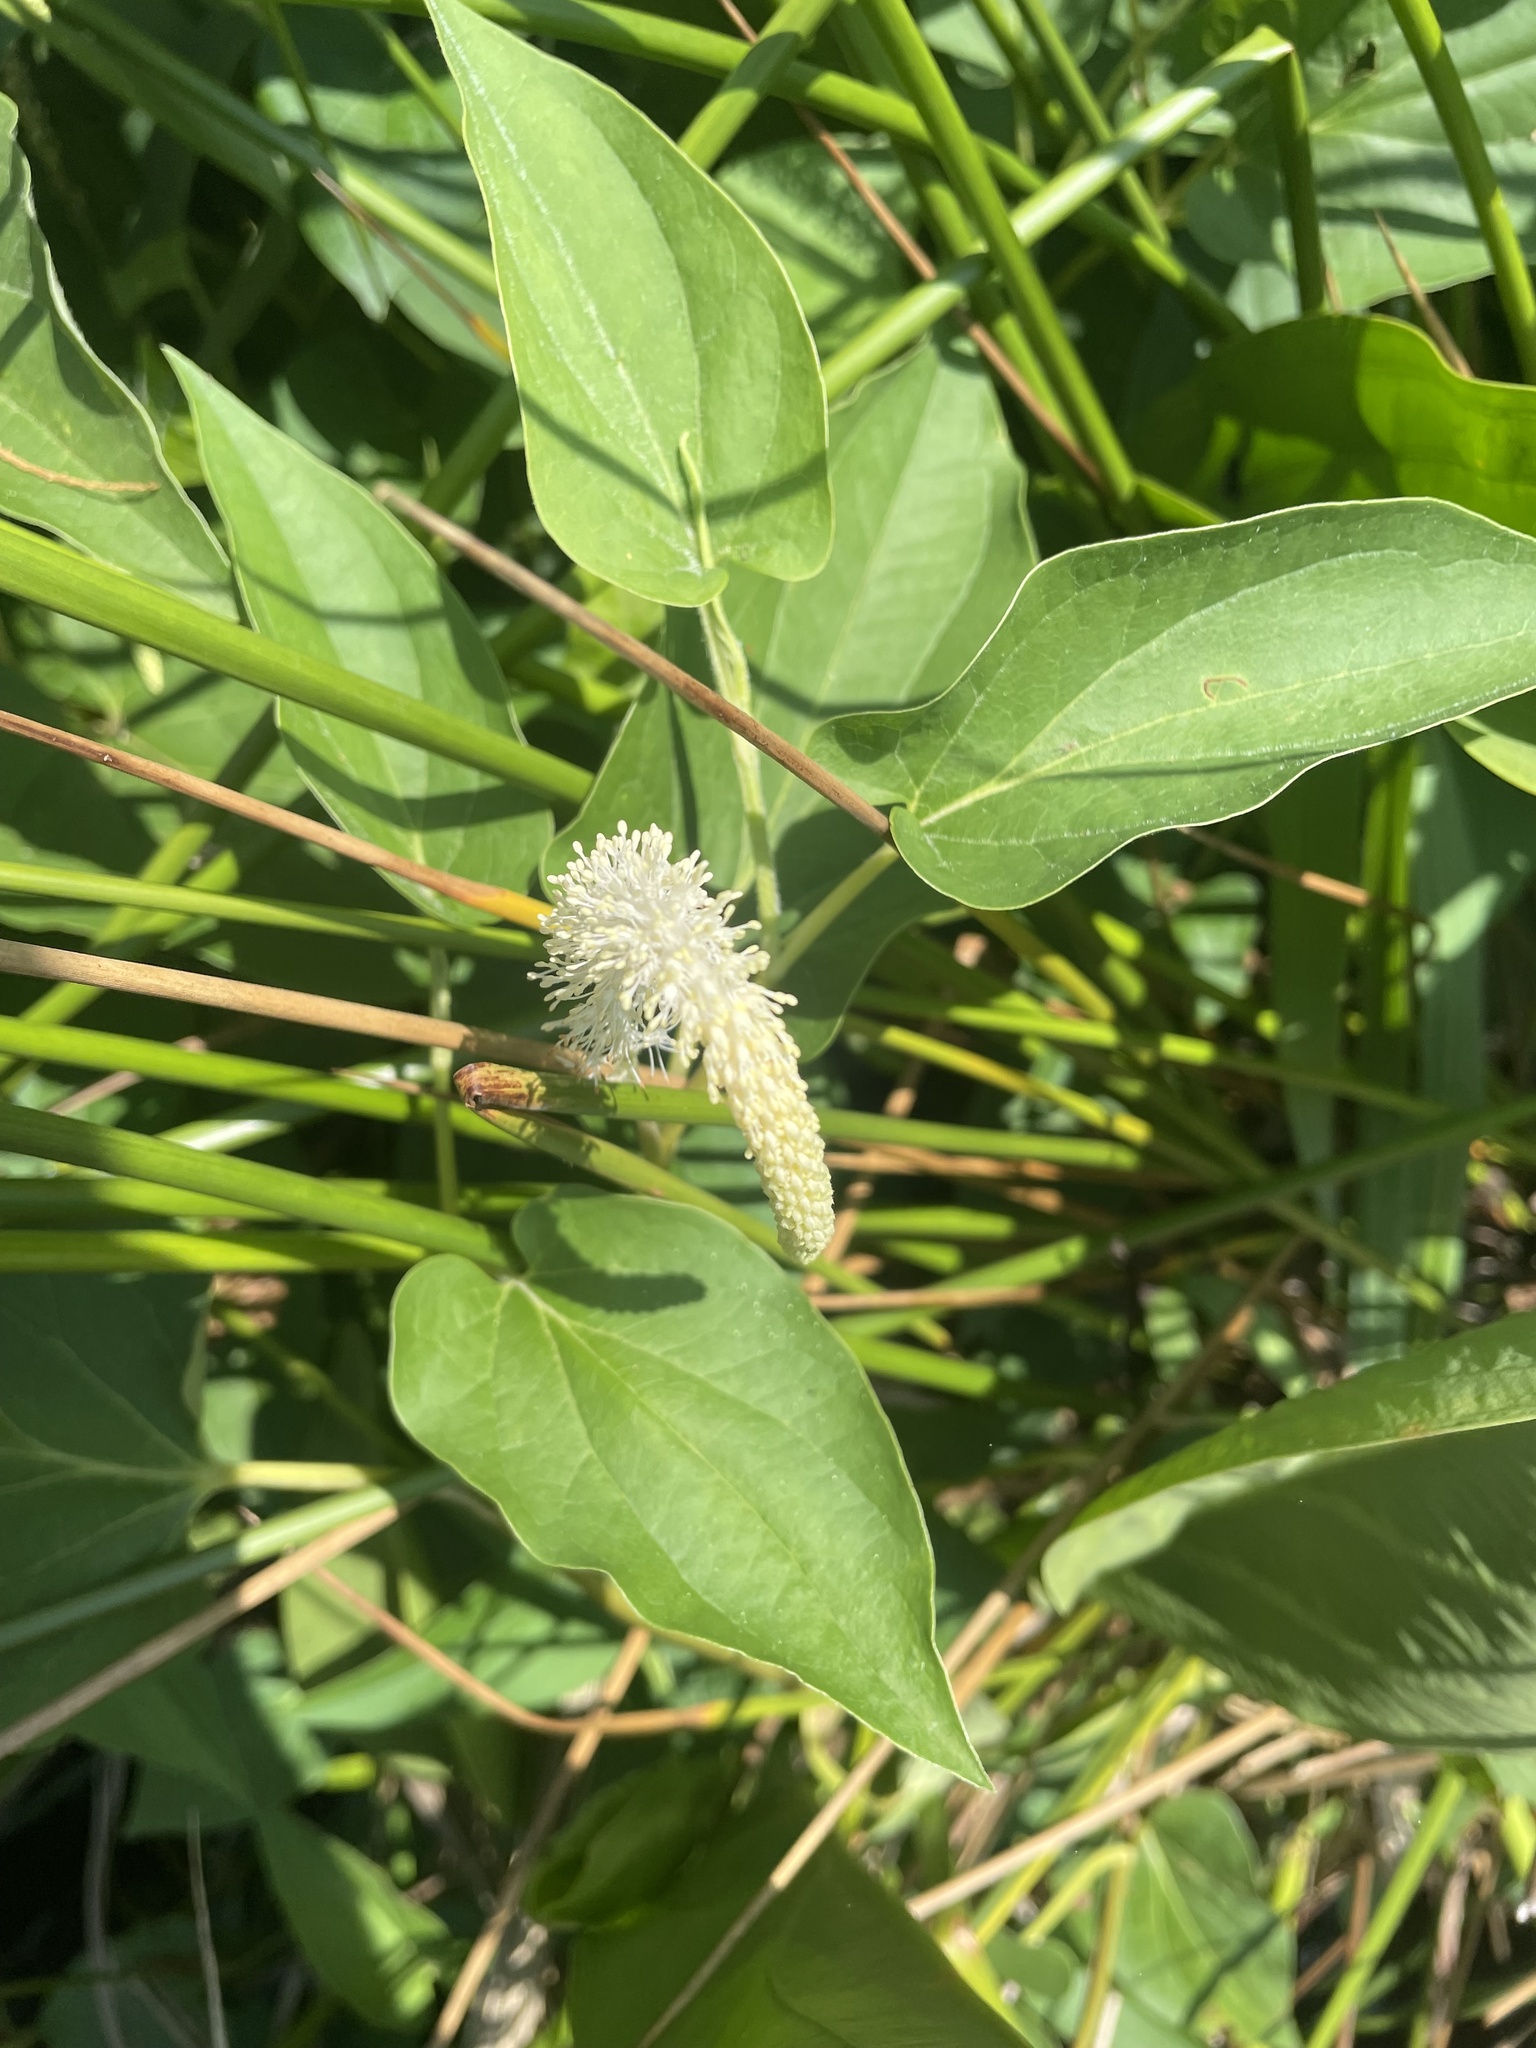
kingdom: Plantae
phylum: Tracheophyta
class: Magnoliopsida
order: Piperales
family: Saururaceae
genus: Saururus
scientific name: Saururus cernuus
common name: Lizard's-tail
